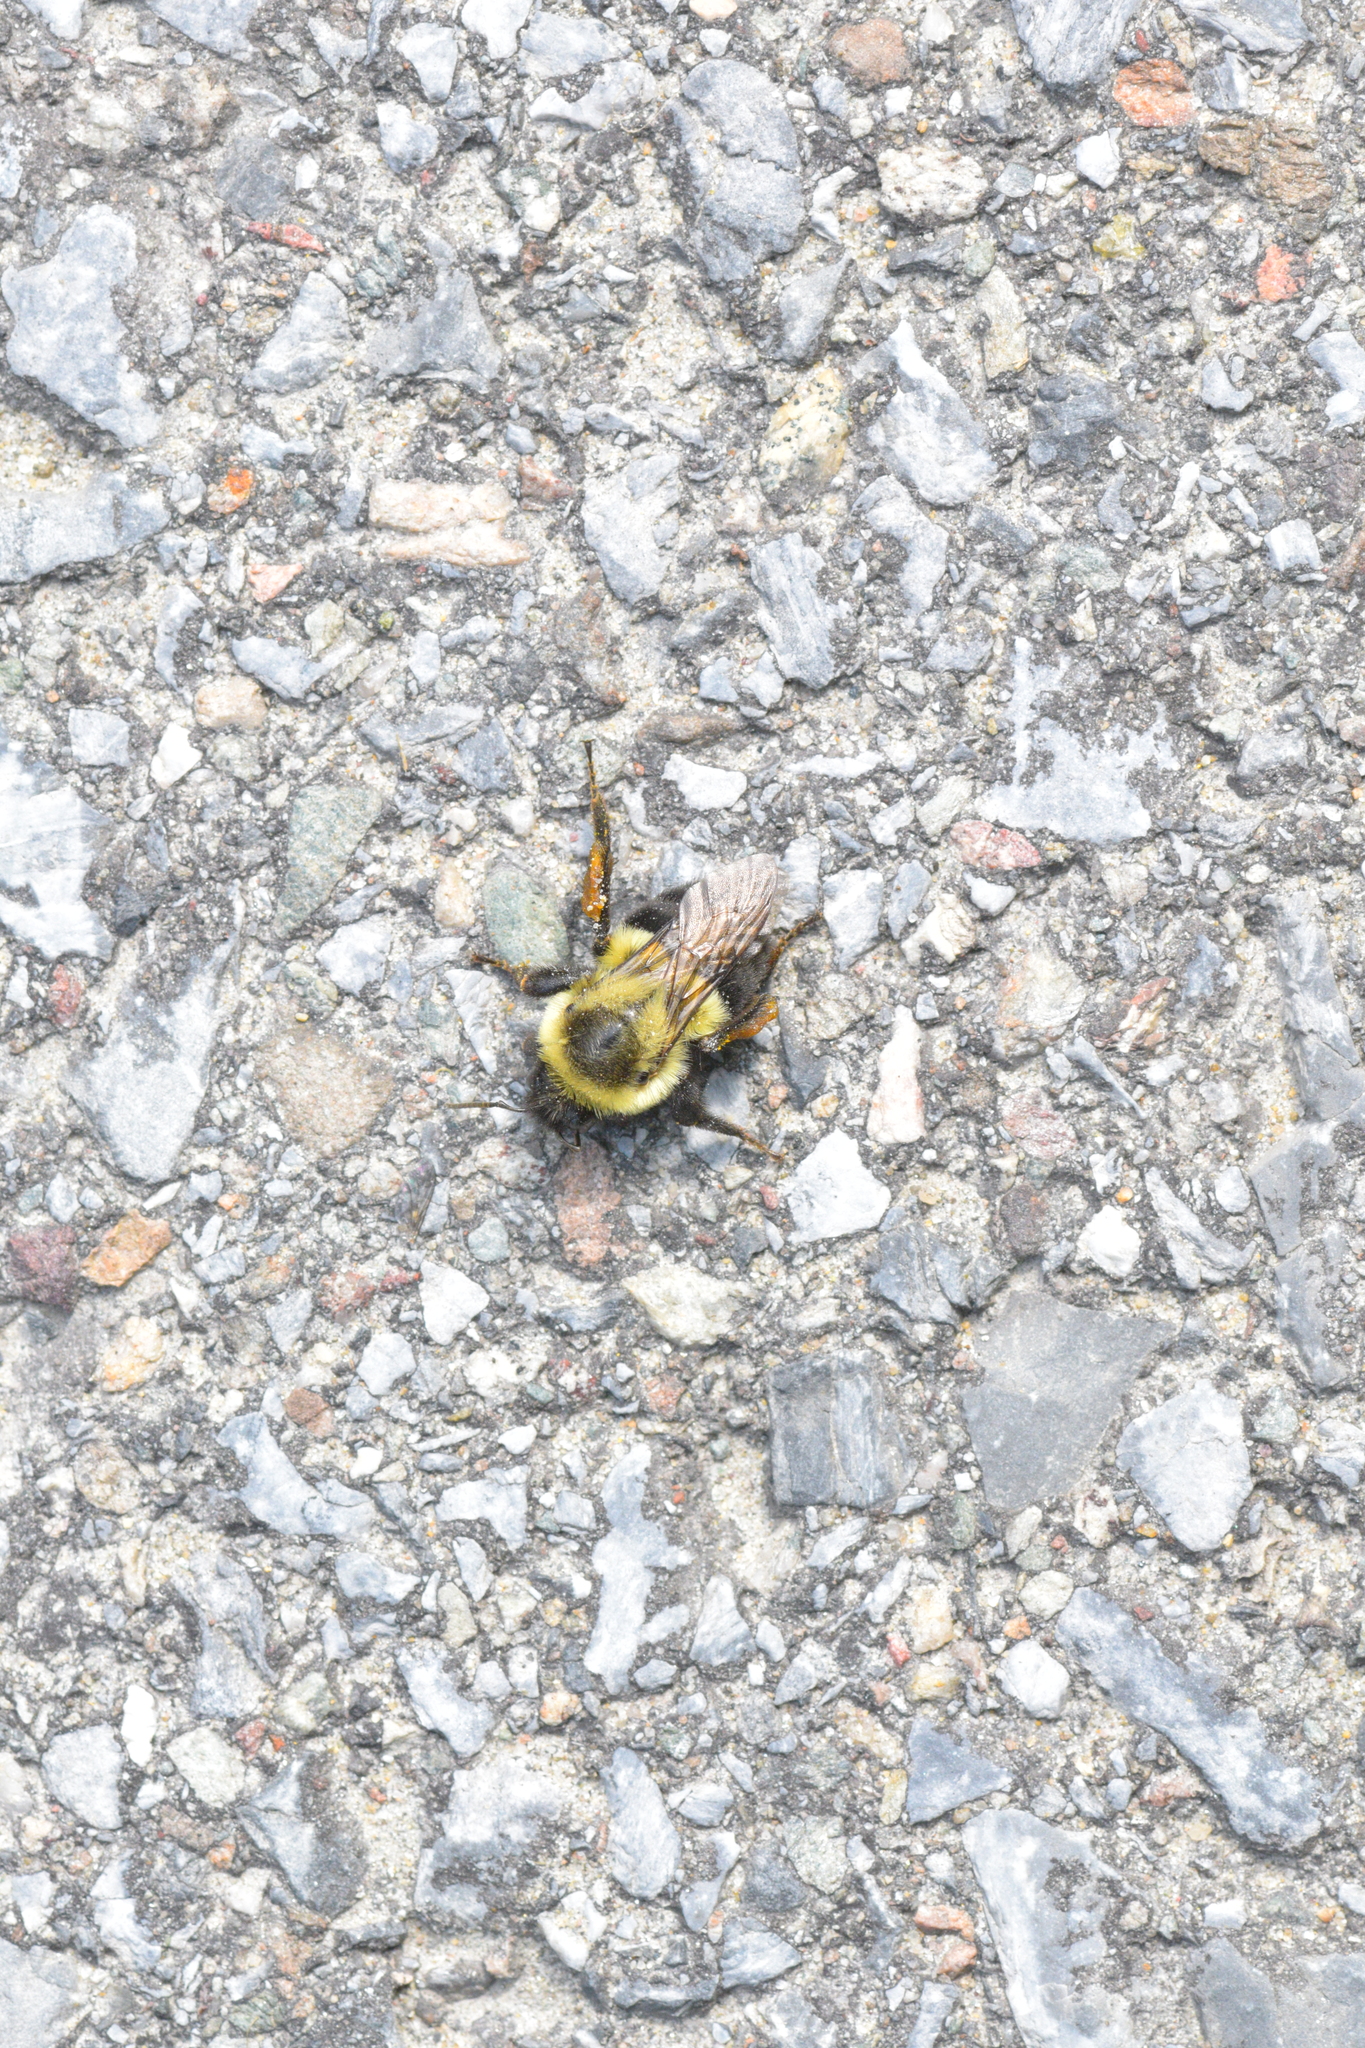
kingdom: Animalia
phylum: Arthropoda
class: Insecta
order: Hymenoptera
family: Apidae
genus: Bombus
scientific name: Bombus impatiens
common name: Common eastern bumble bee
